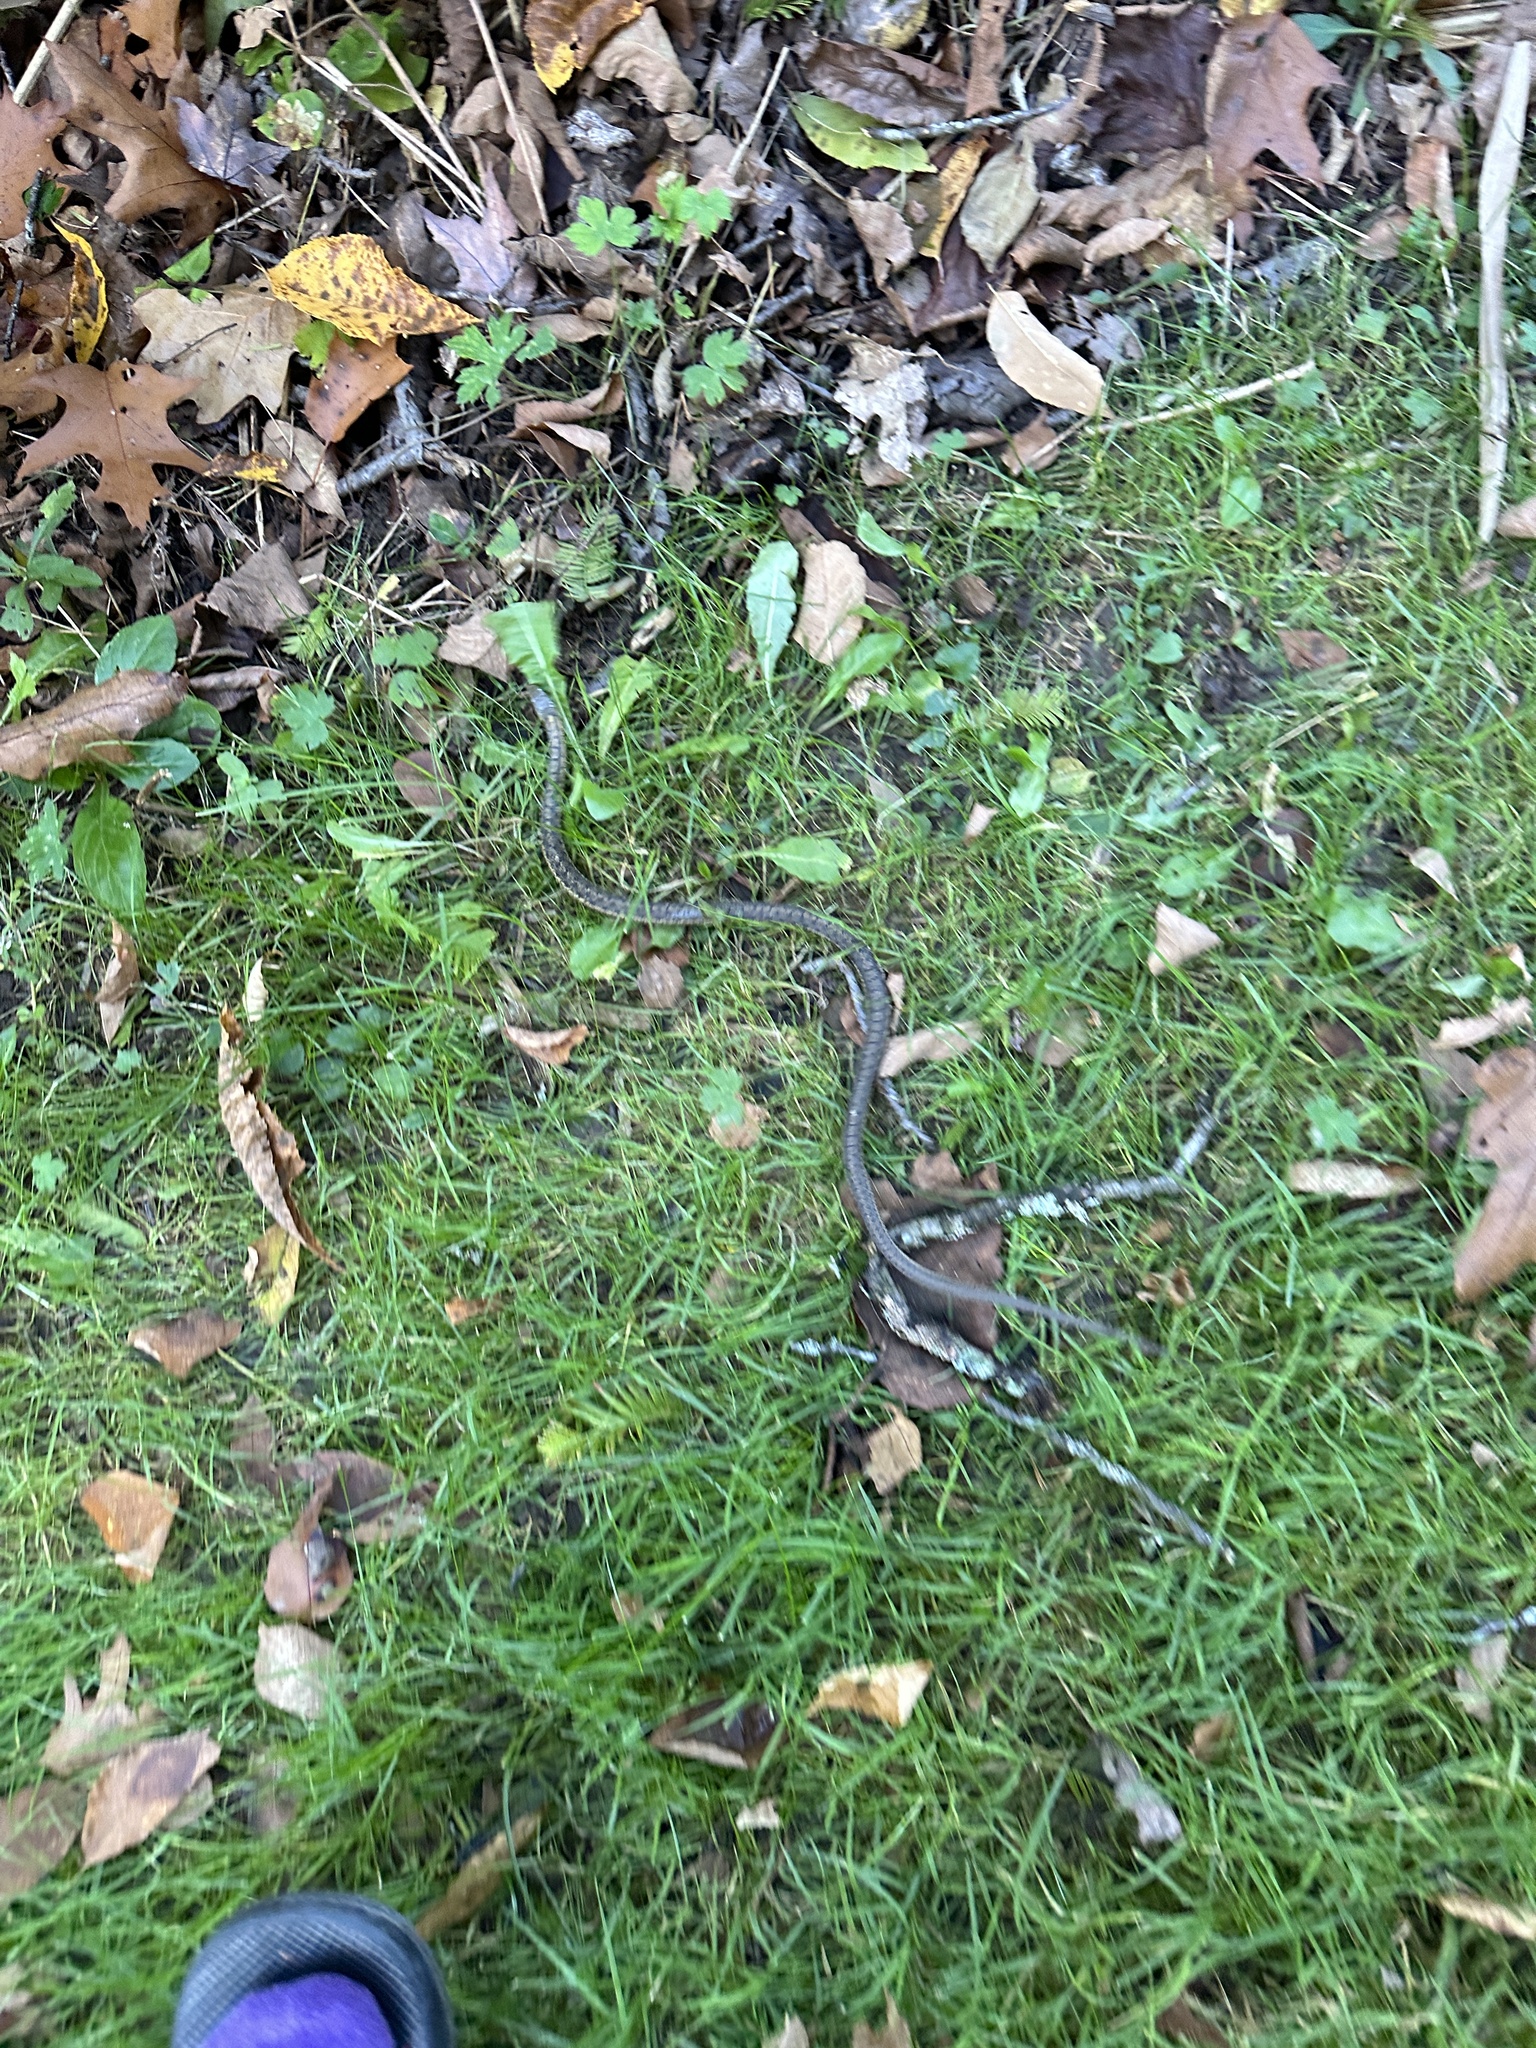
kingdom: Animalia
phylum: Chordata
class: Squamata
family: Colubridae
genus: Thamnophis
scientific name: Thamnophis sirtalis
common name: Common garter snake
